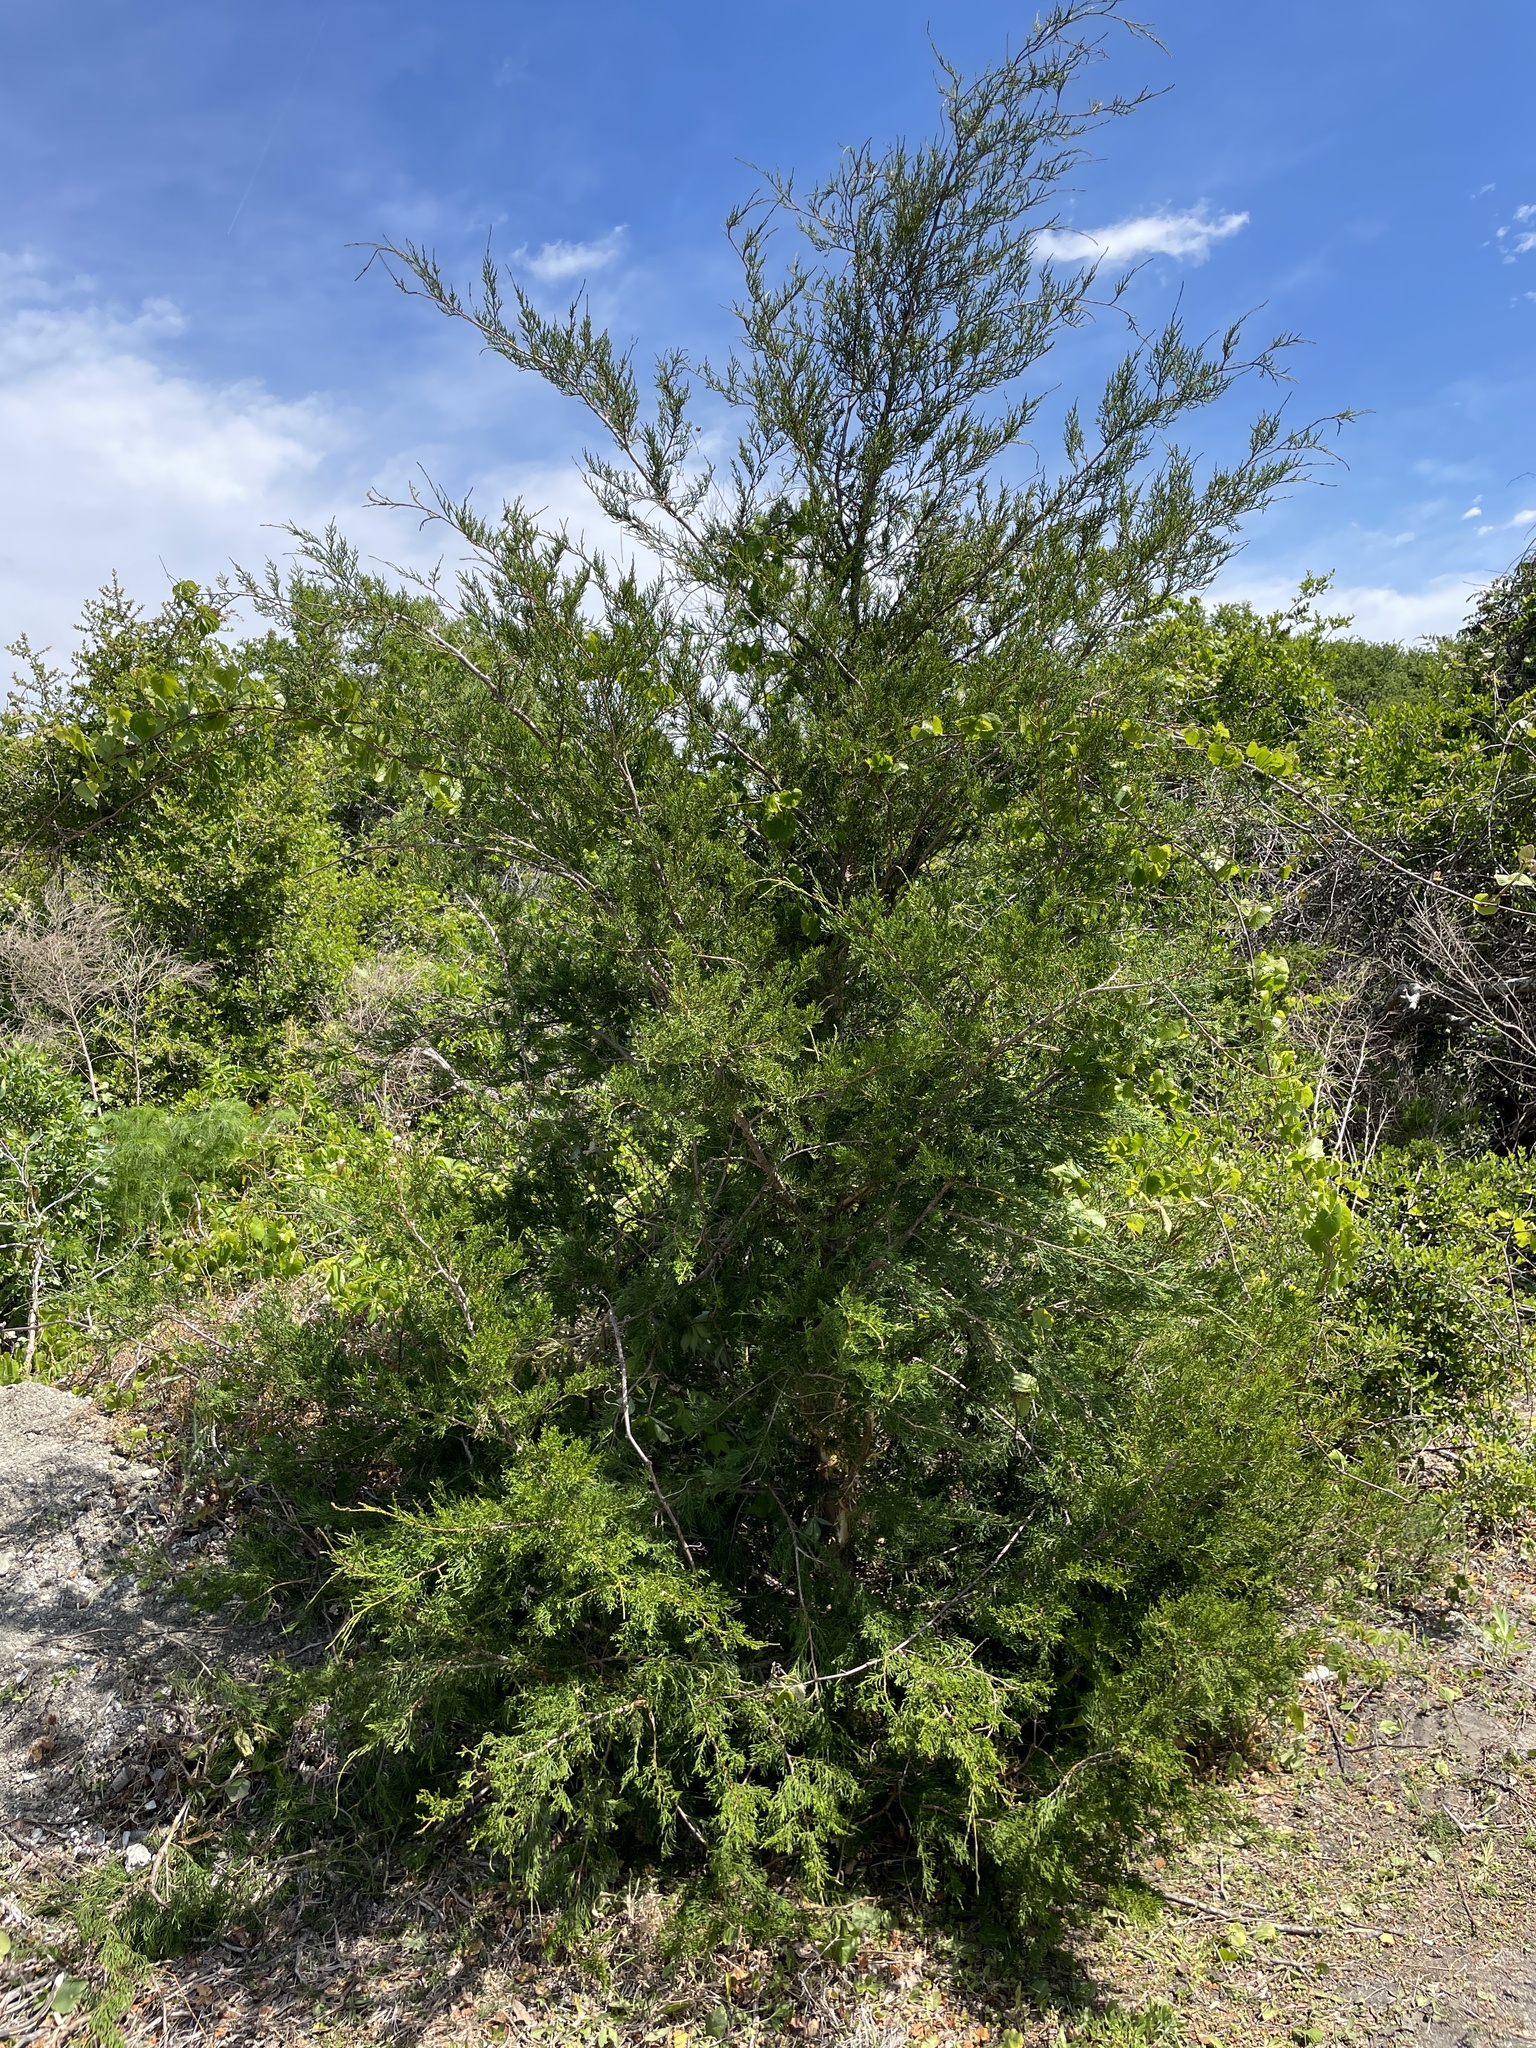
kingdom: Plantae
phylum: Tracheophyta
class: Pinopsida
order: Pinales
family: Cupressaceae
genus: Juniperus
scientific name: Juniperus virginiana
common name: Red juniper
